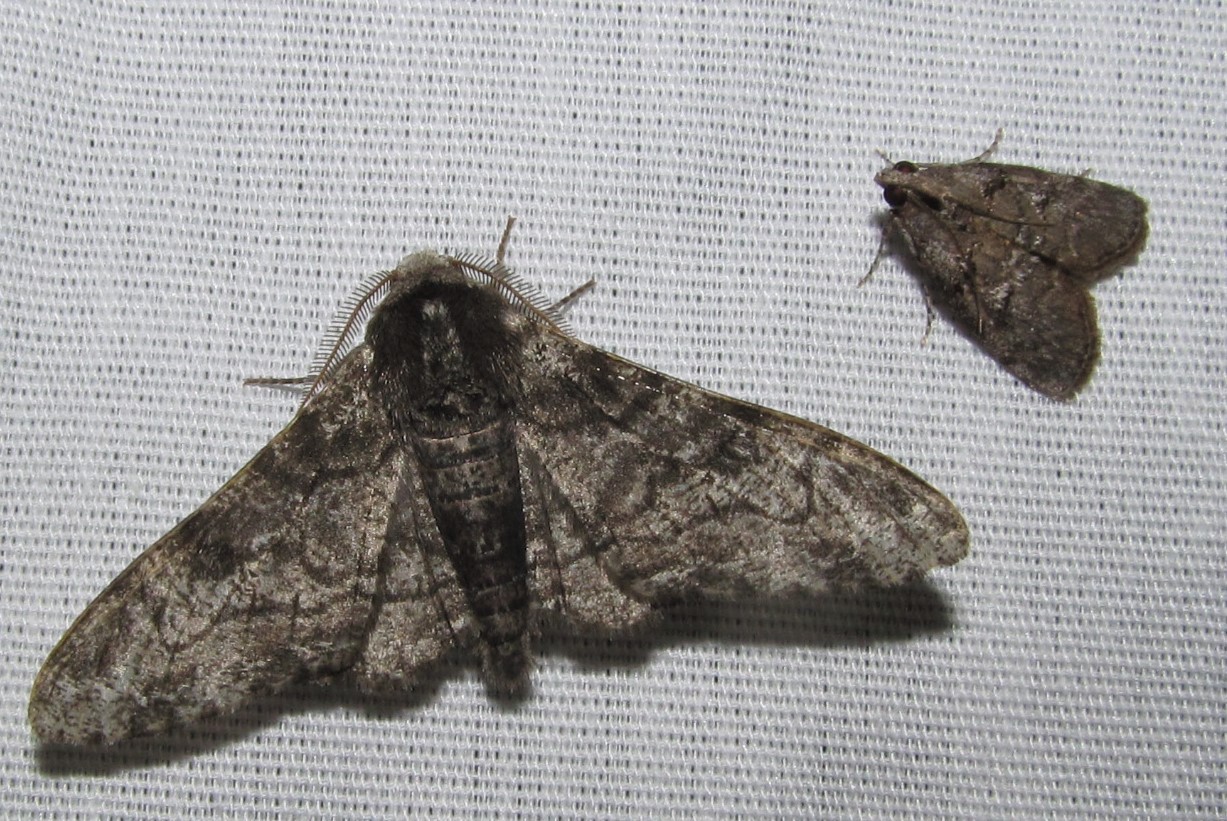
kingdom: Animalia
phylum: Arthropoda
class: Insecta
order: Lepidoptera
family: Geometridae
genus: Biston
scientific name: Biston betularia
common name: Peppered moth
